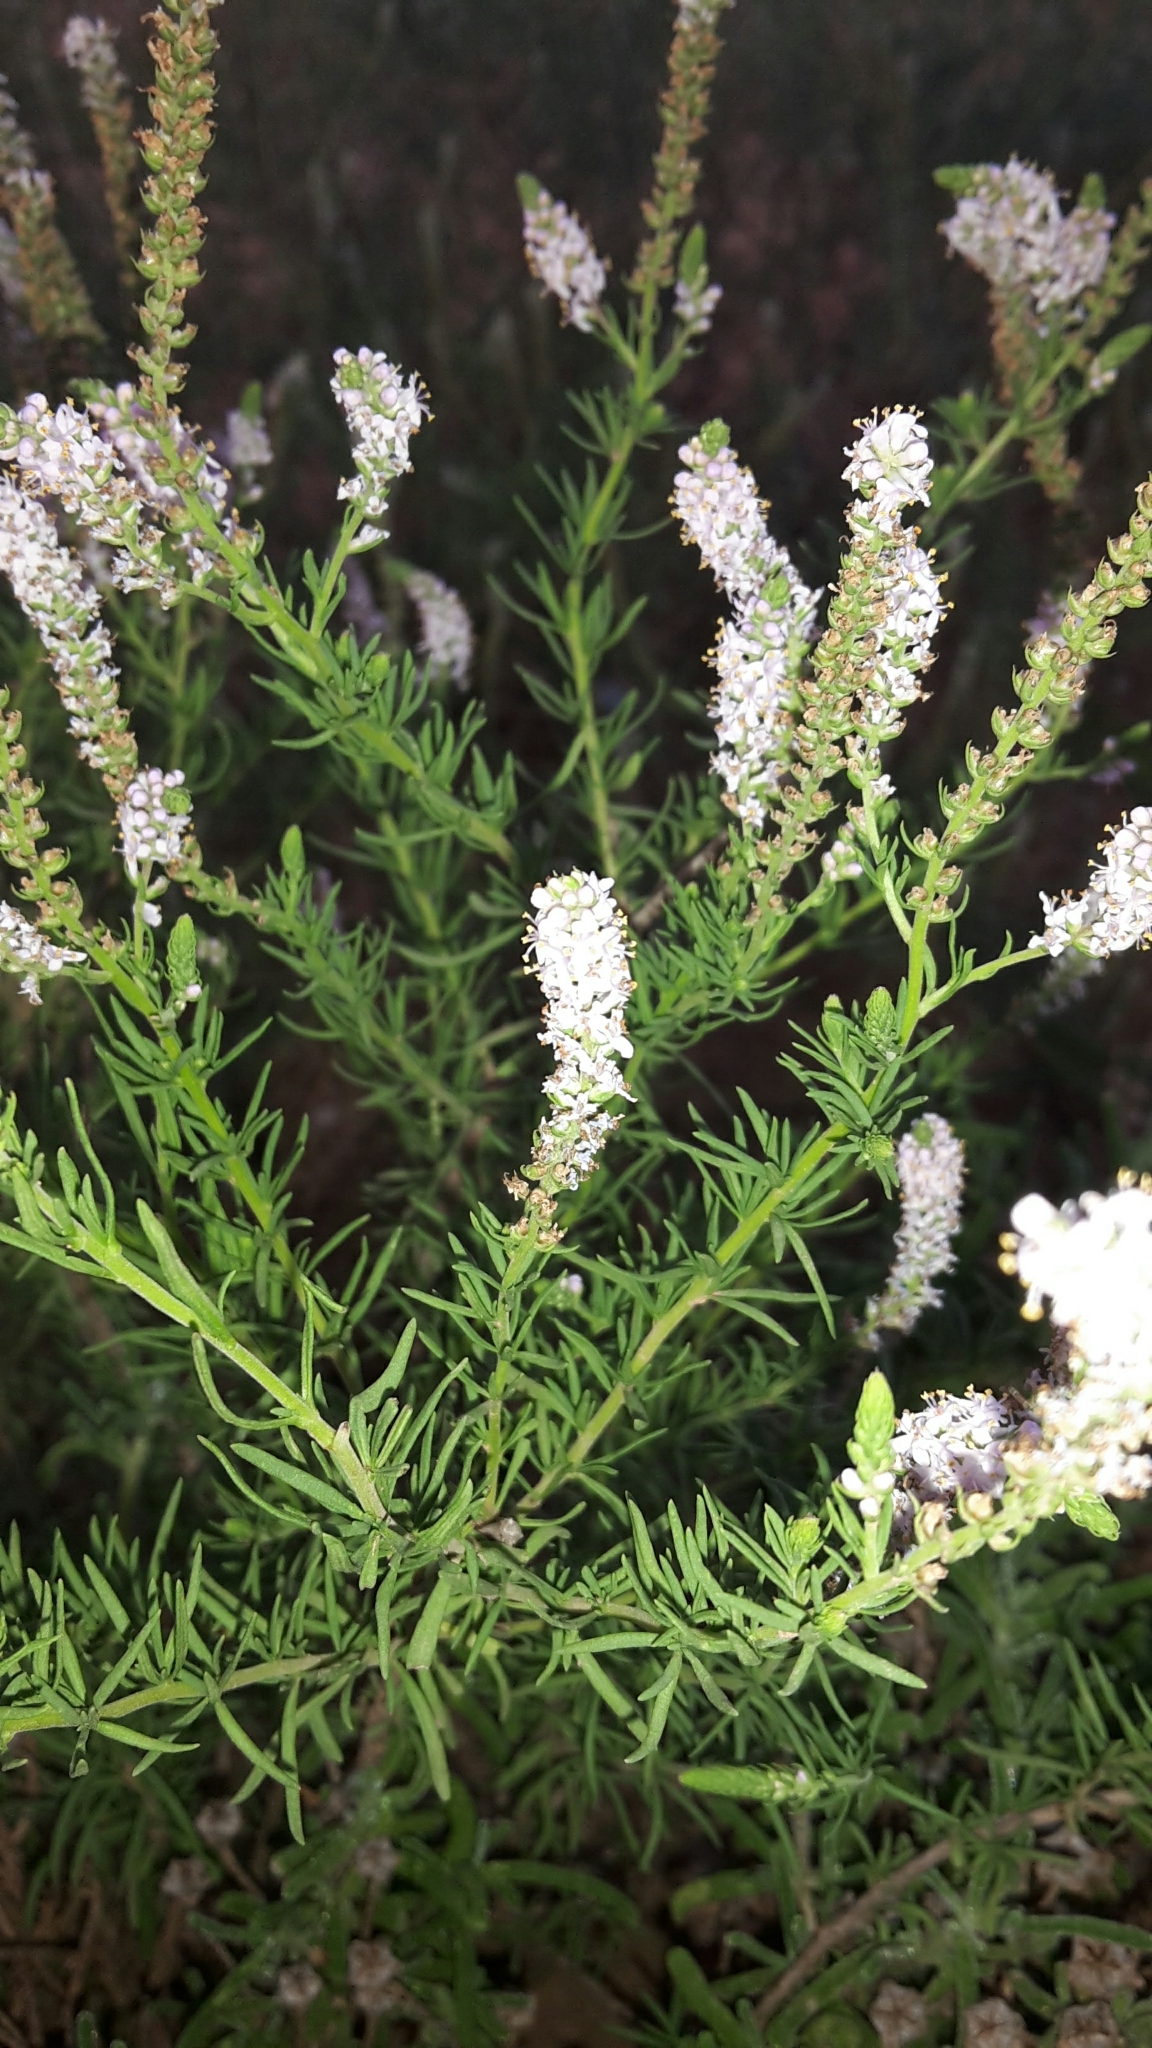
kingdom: Plantae
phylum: Tracheophyta
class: Magnoliopsida
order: Lamiales
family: Scrophulariaceae
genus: Selago
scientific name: Selago geniculata
